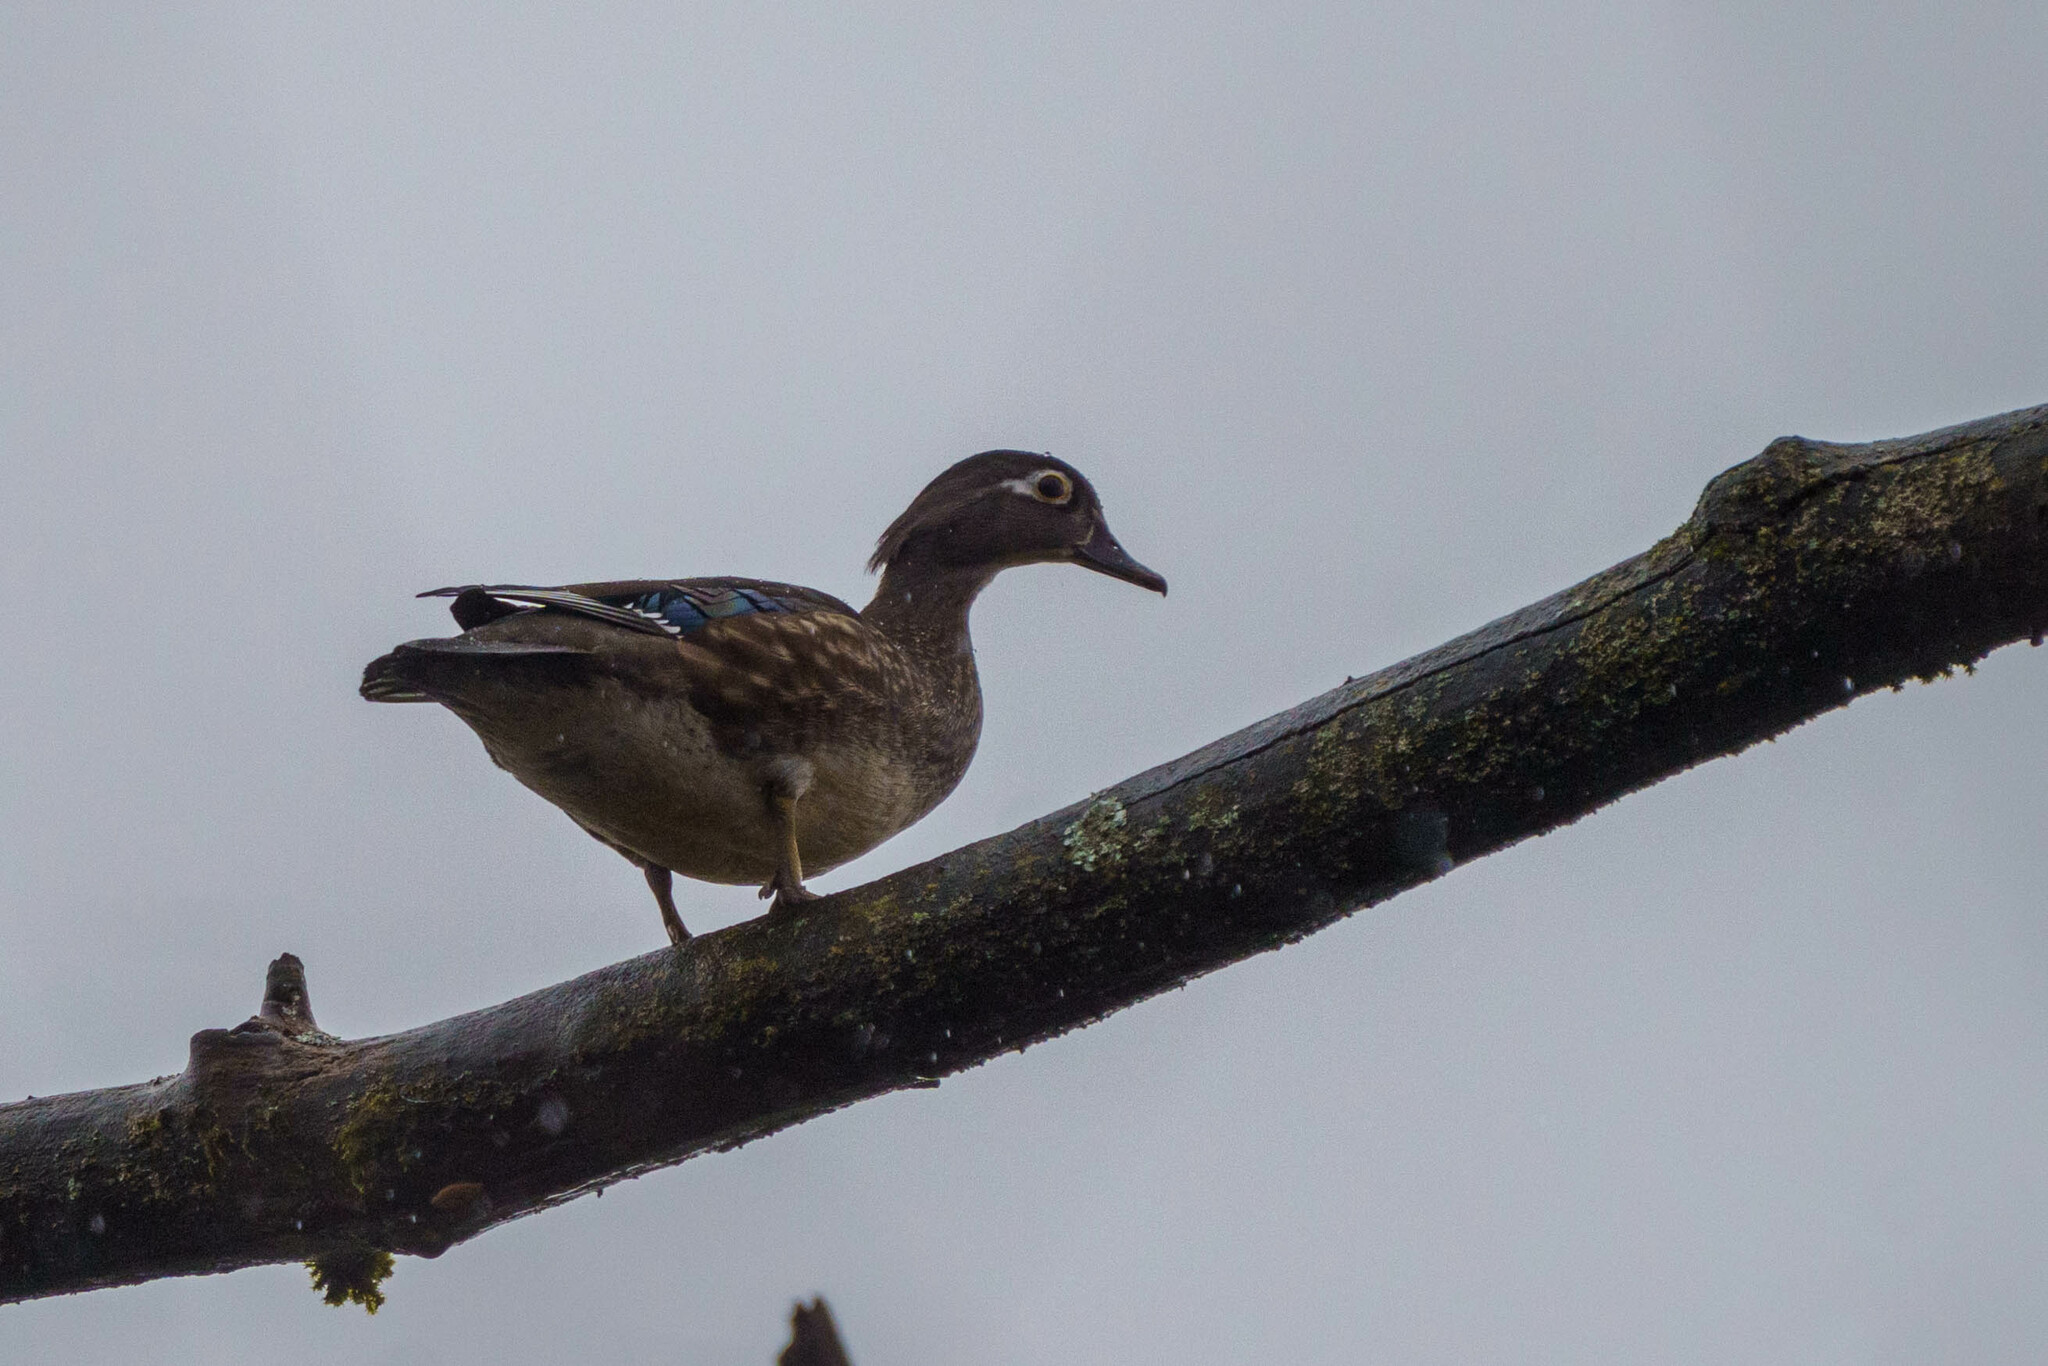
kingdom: Animalia
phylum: Chordata
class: Aves
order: Anseriformes
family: Anatidae
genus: Aix
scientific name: Aix sponsa
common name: Wood duck
